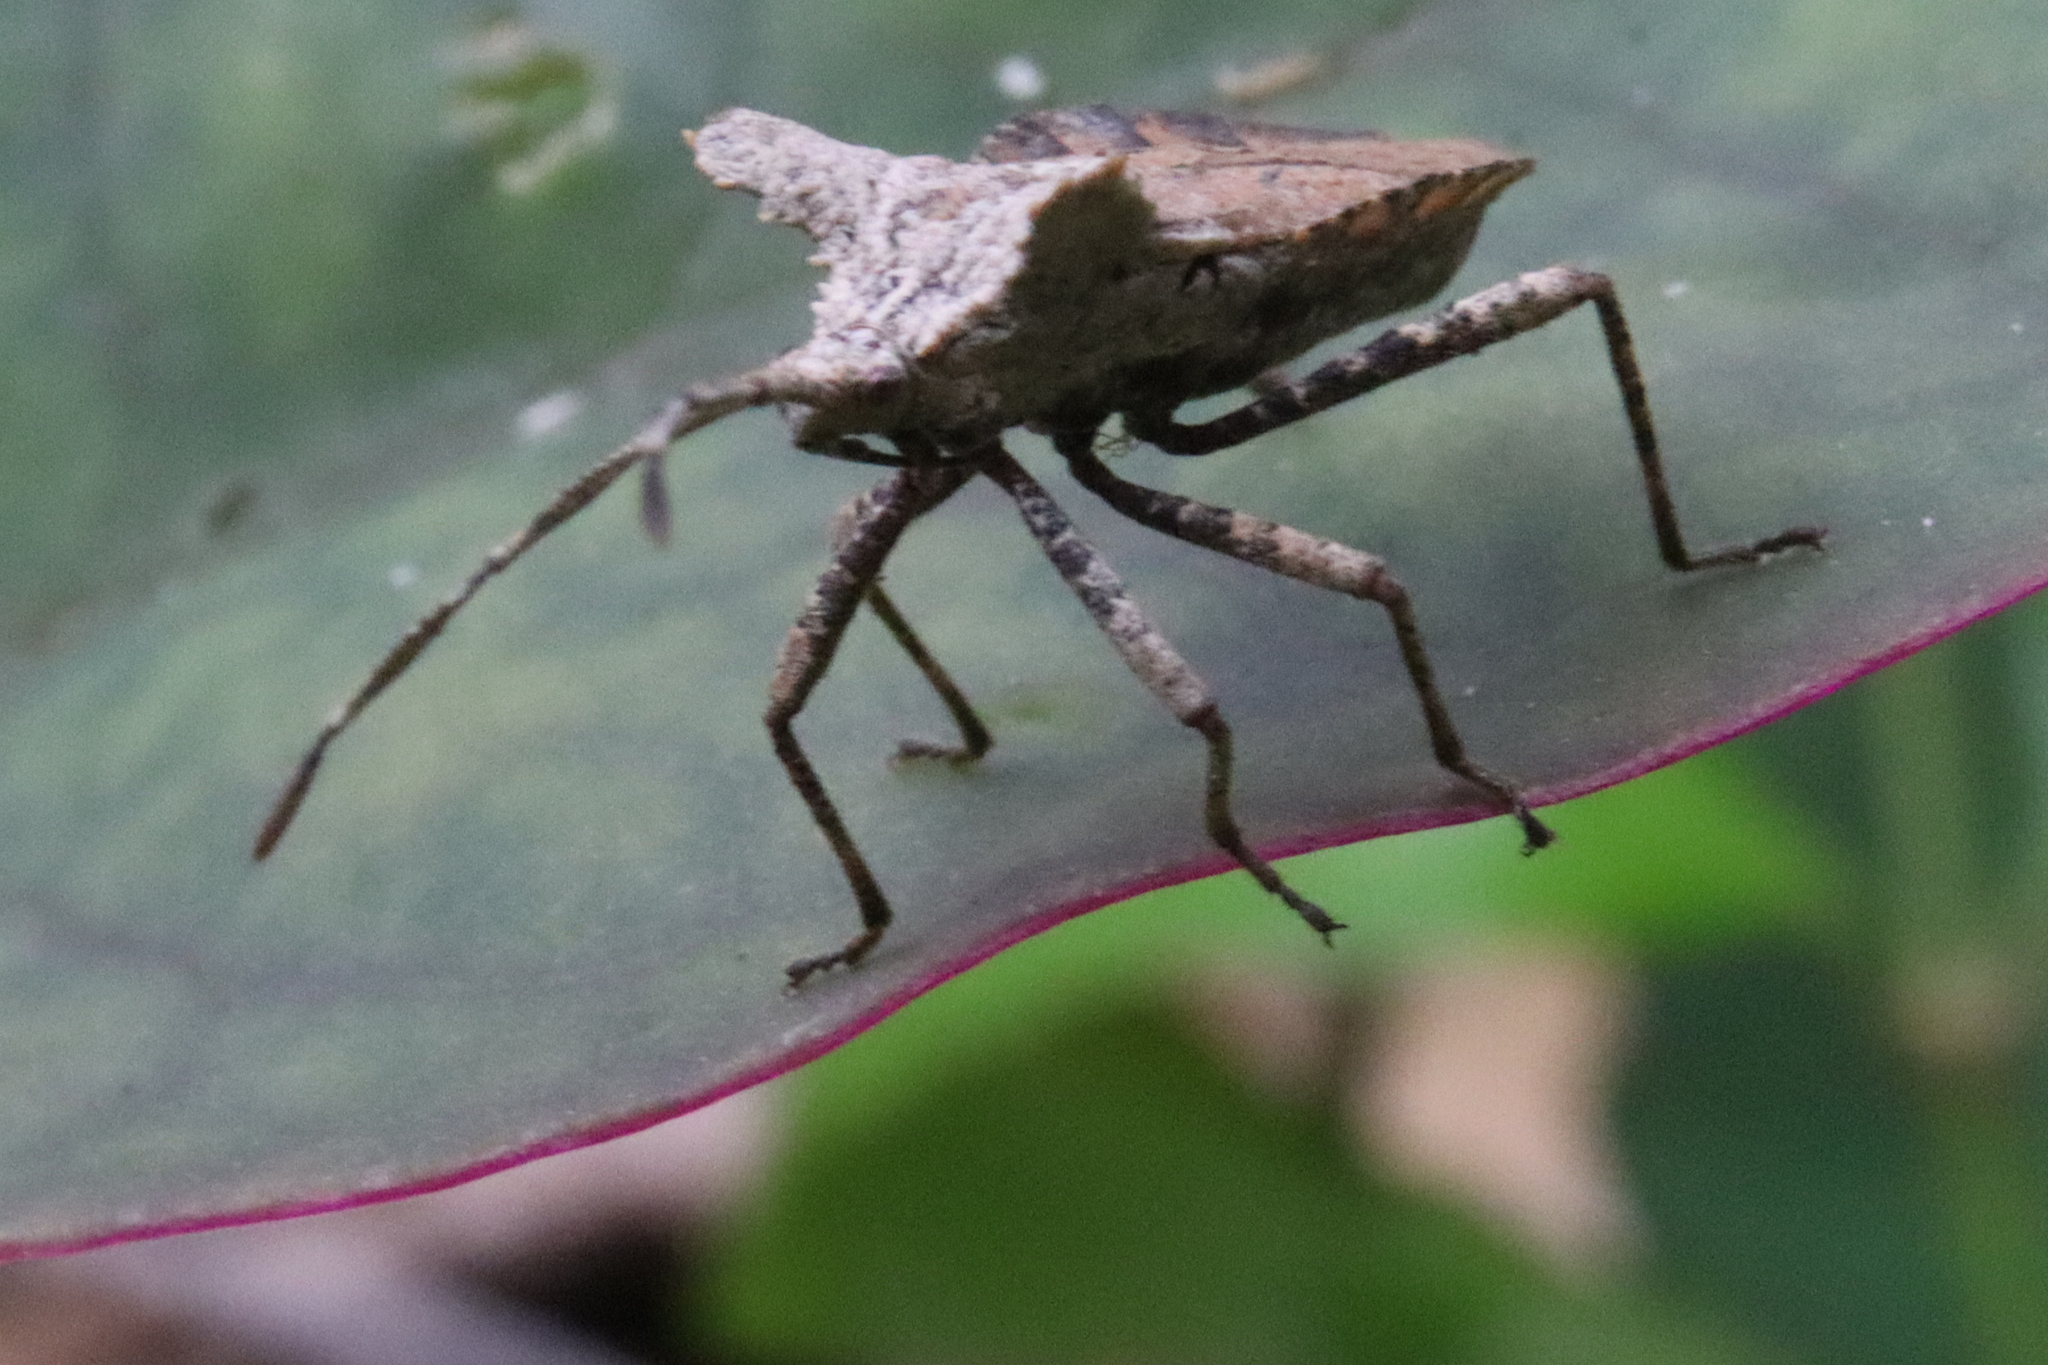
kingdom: Animalia
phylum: Arthropoda
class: Insecta
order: Hemiptera
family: Coreidae
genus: Acanonicus
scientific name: Acanonicus laticornis
